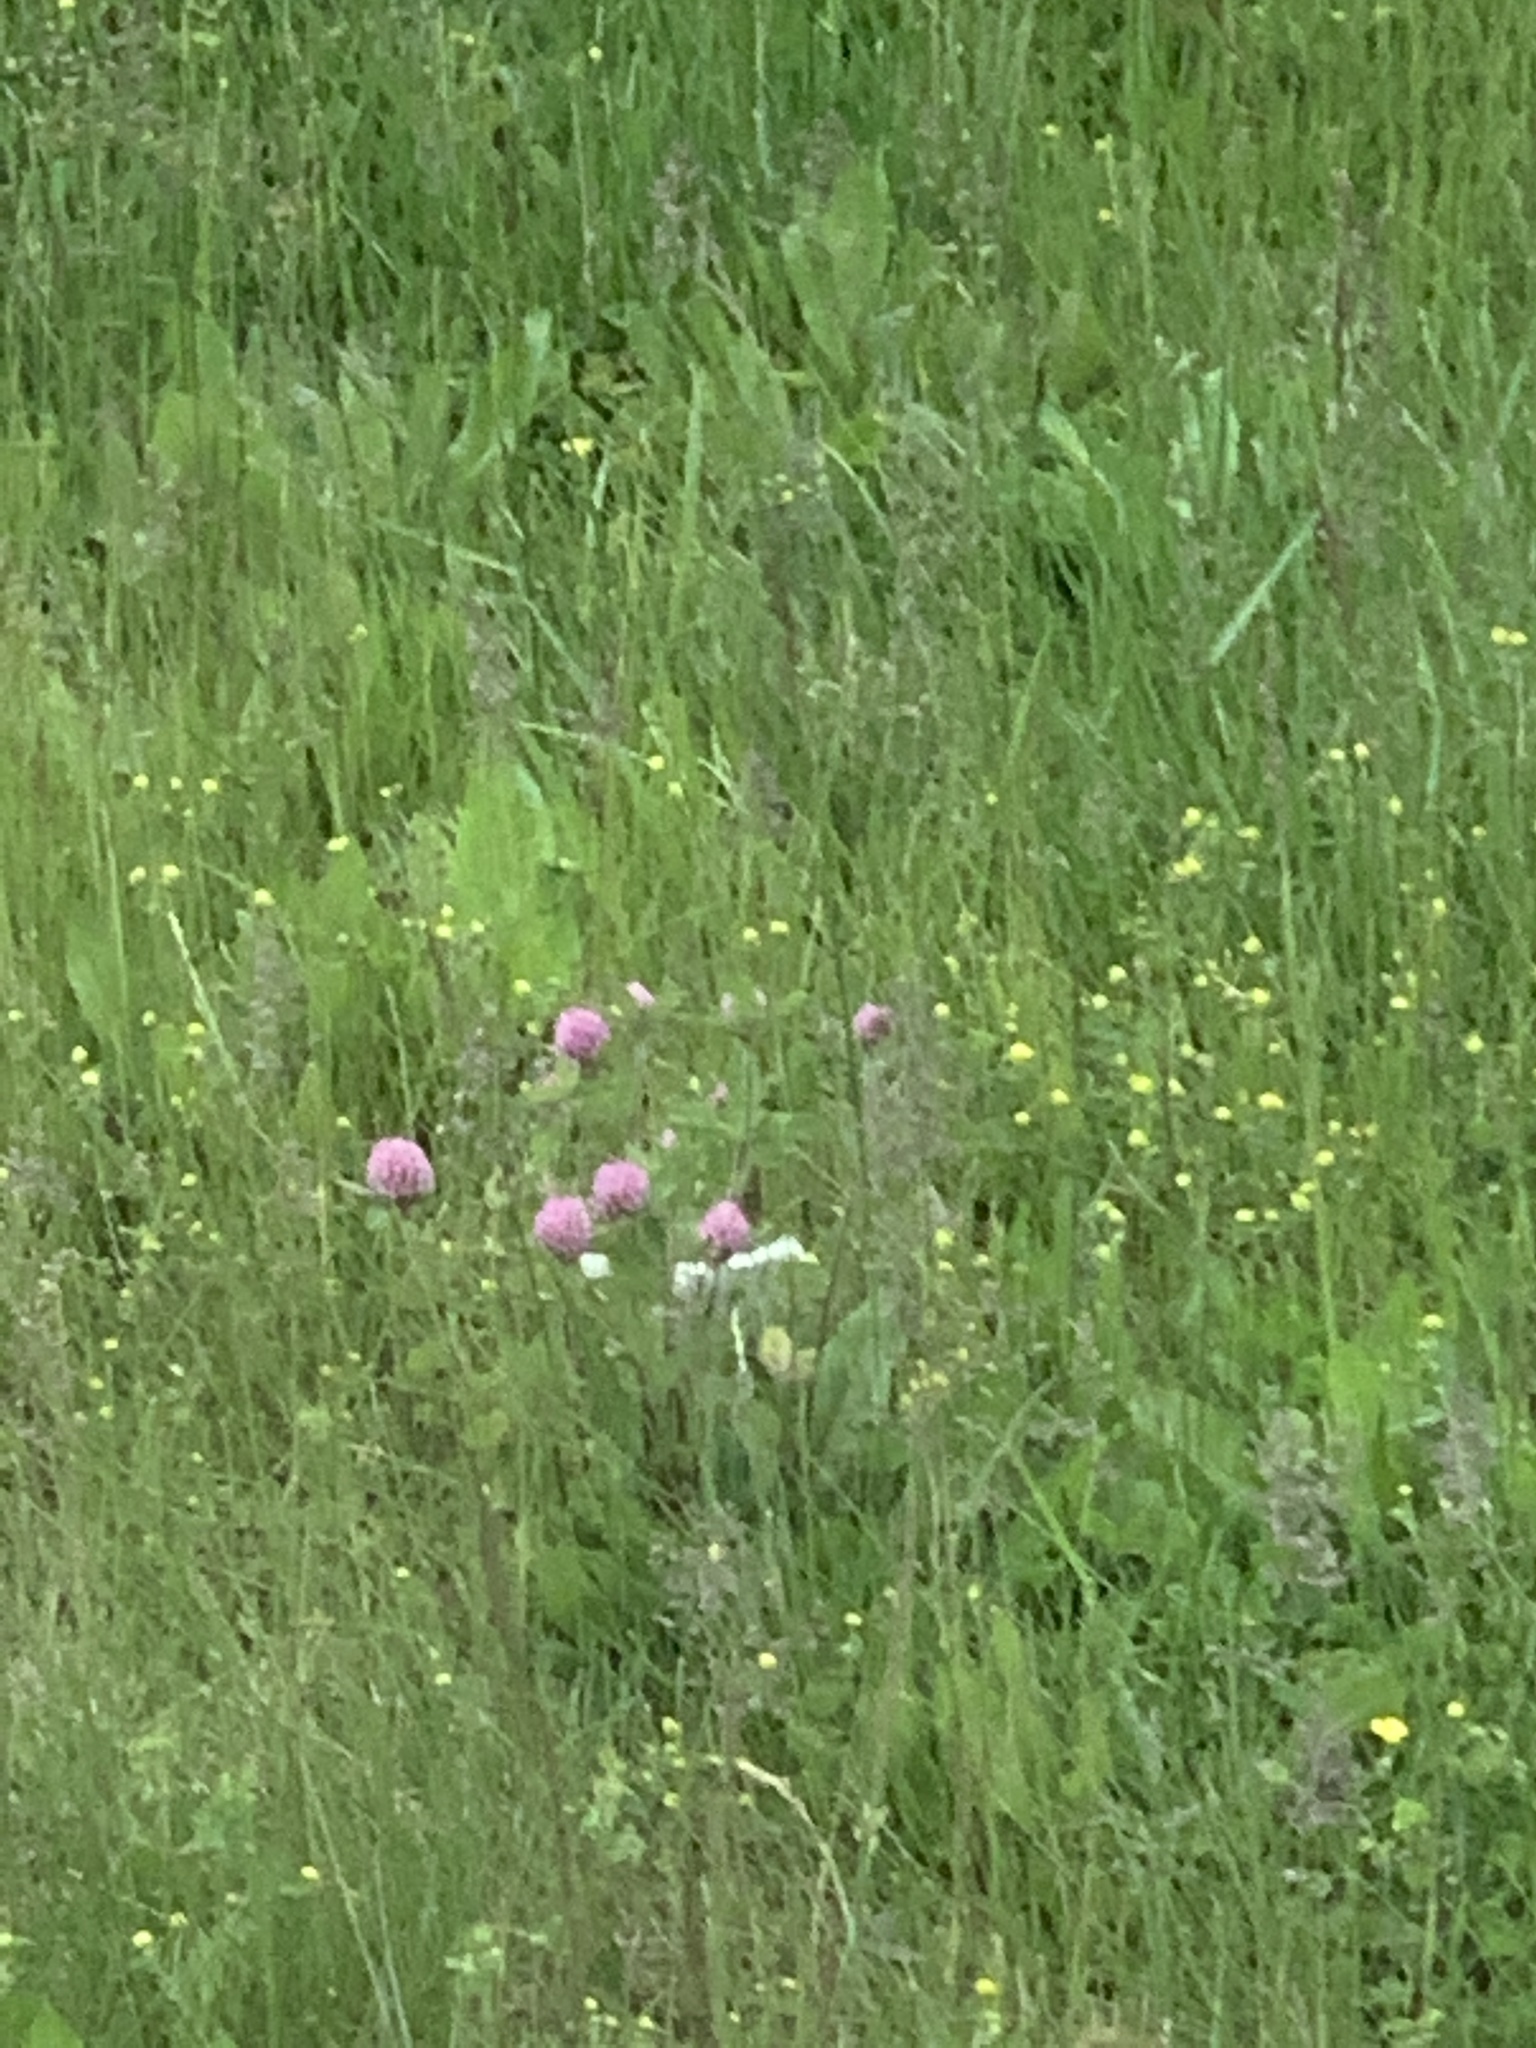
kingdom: Plantae
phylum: Tracheophyta
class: Magnoliopsida
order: Fabales
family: Fabaceae
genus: Trifolium
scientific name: Trifolium pratense
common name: Red clover
